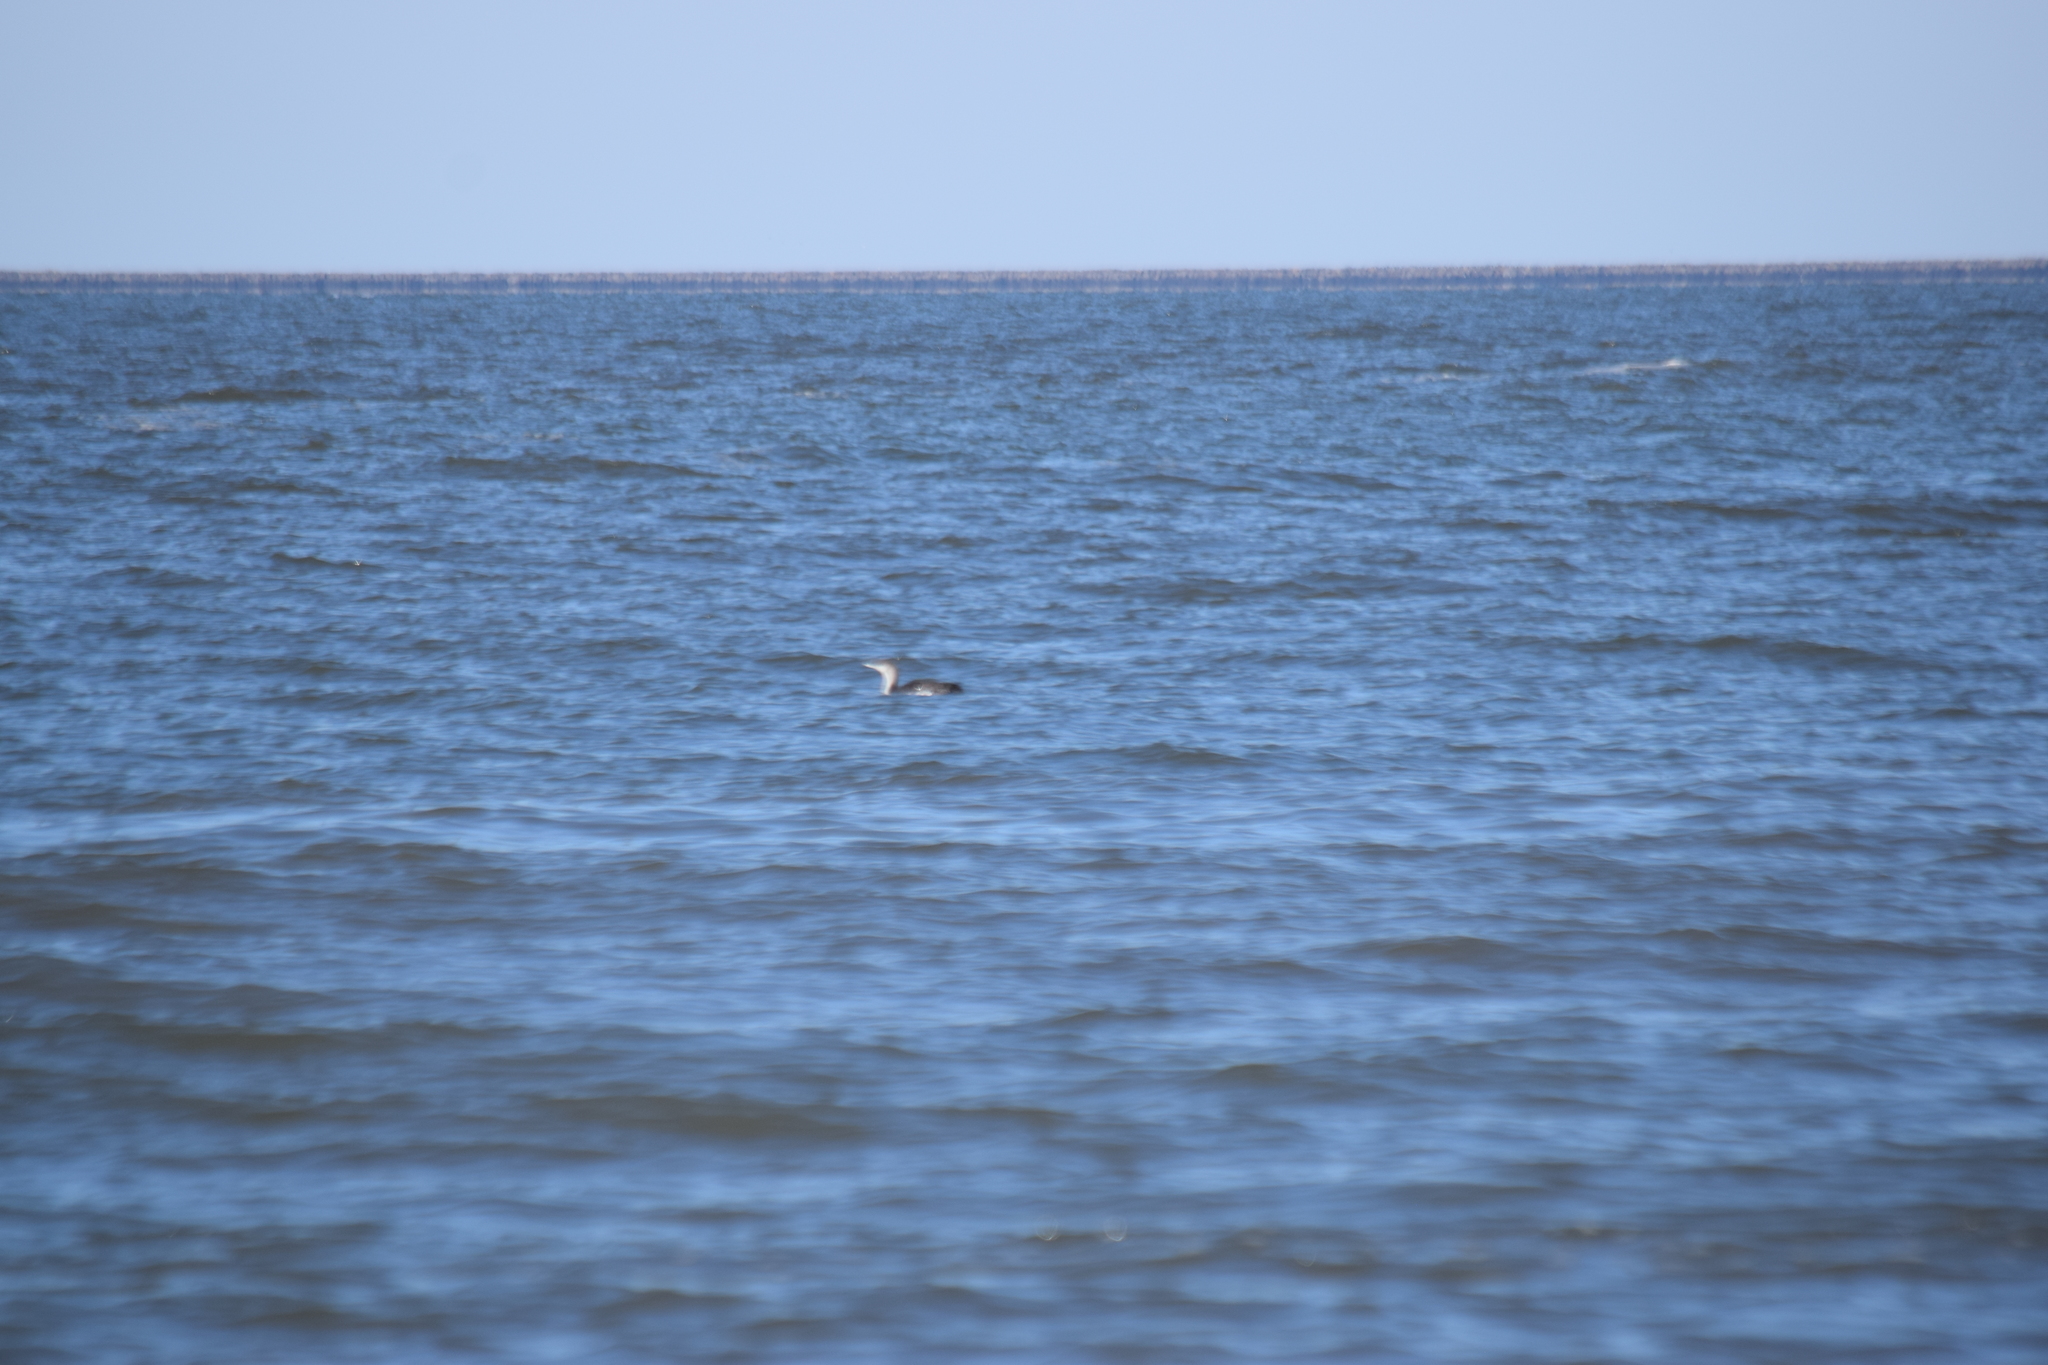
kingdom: Animalia
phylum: Chordata
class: Aves
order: Gaviiformes
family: Gaviidae
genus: Gavia
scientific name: Gavia stellata
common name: Red-throated loon
